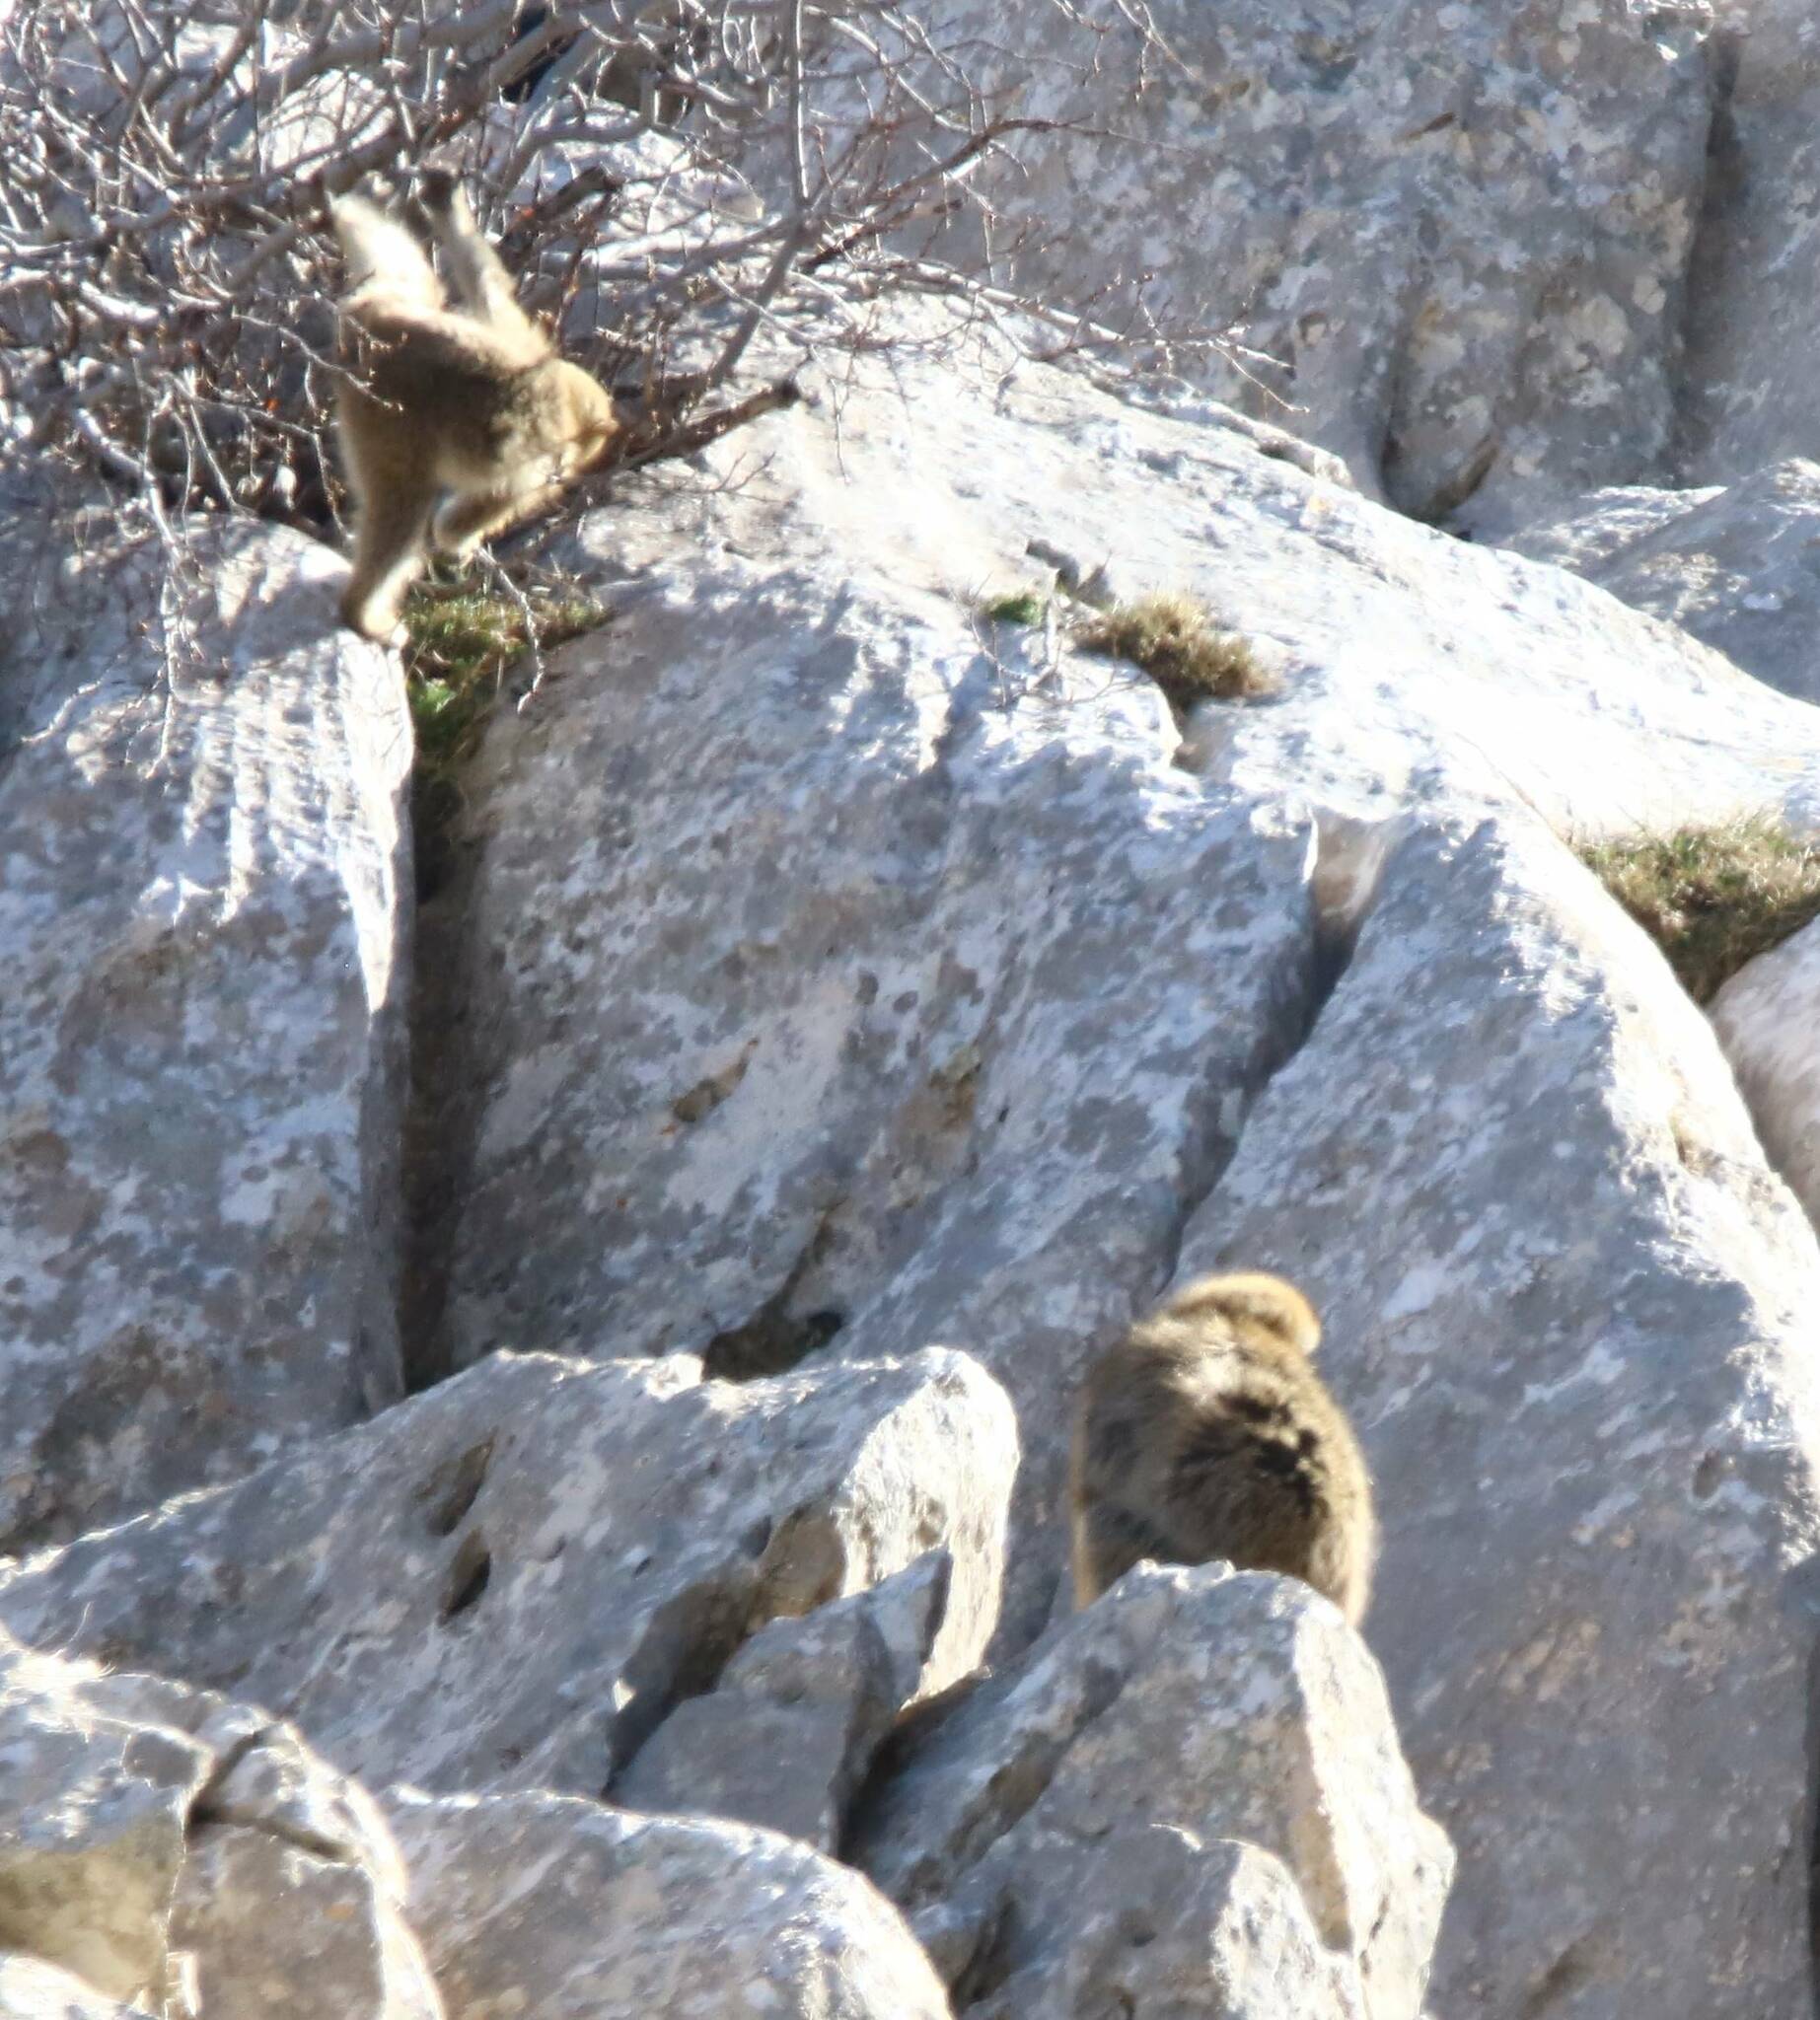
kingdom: Animalia
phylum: Chordata
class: Mammalia
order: Primates
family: Cercopithecidae
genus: Macaca
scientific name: Macaca sylvanus
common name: Barbary macaque
